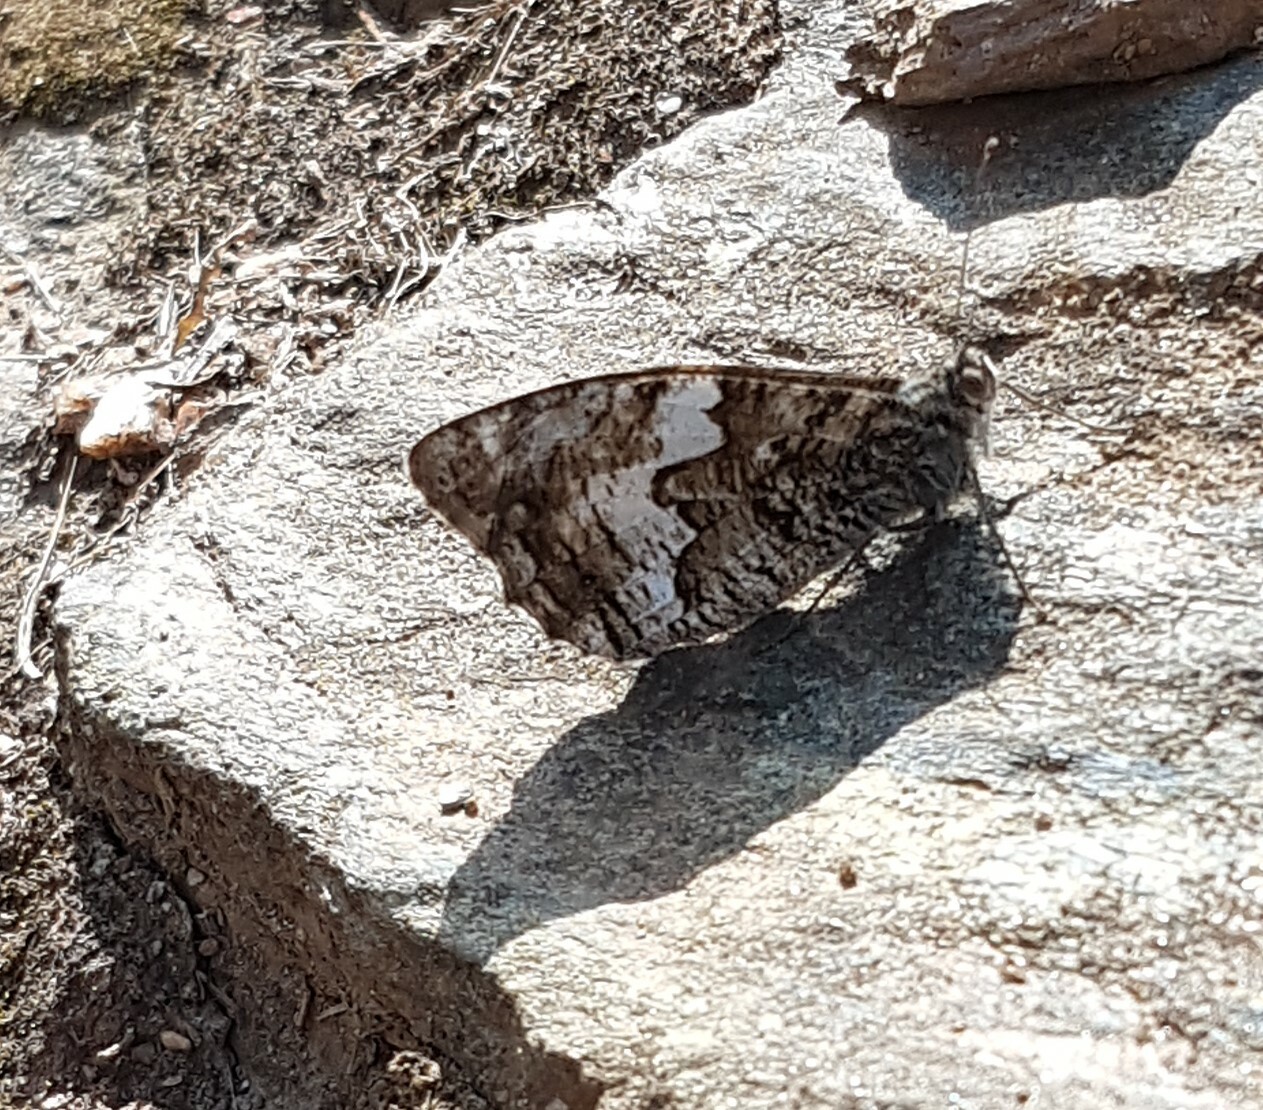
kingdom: Animalia
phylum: Arthropoda
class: Insecta
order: Lepidoptera
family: Nymphalidae
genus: Hipparchia
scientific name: Hipparchia semele
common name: Grayling
